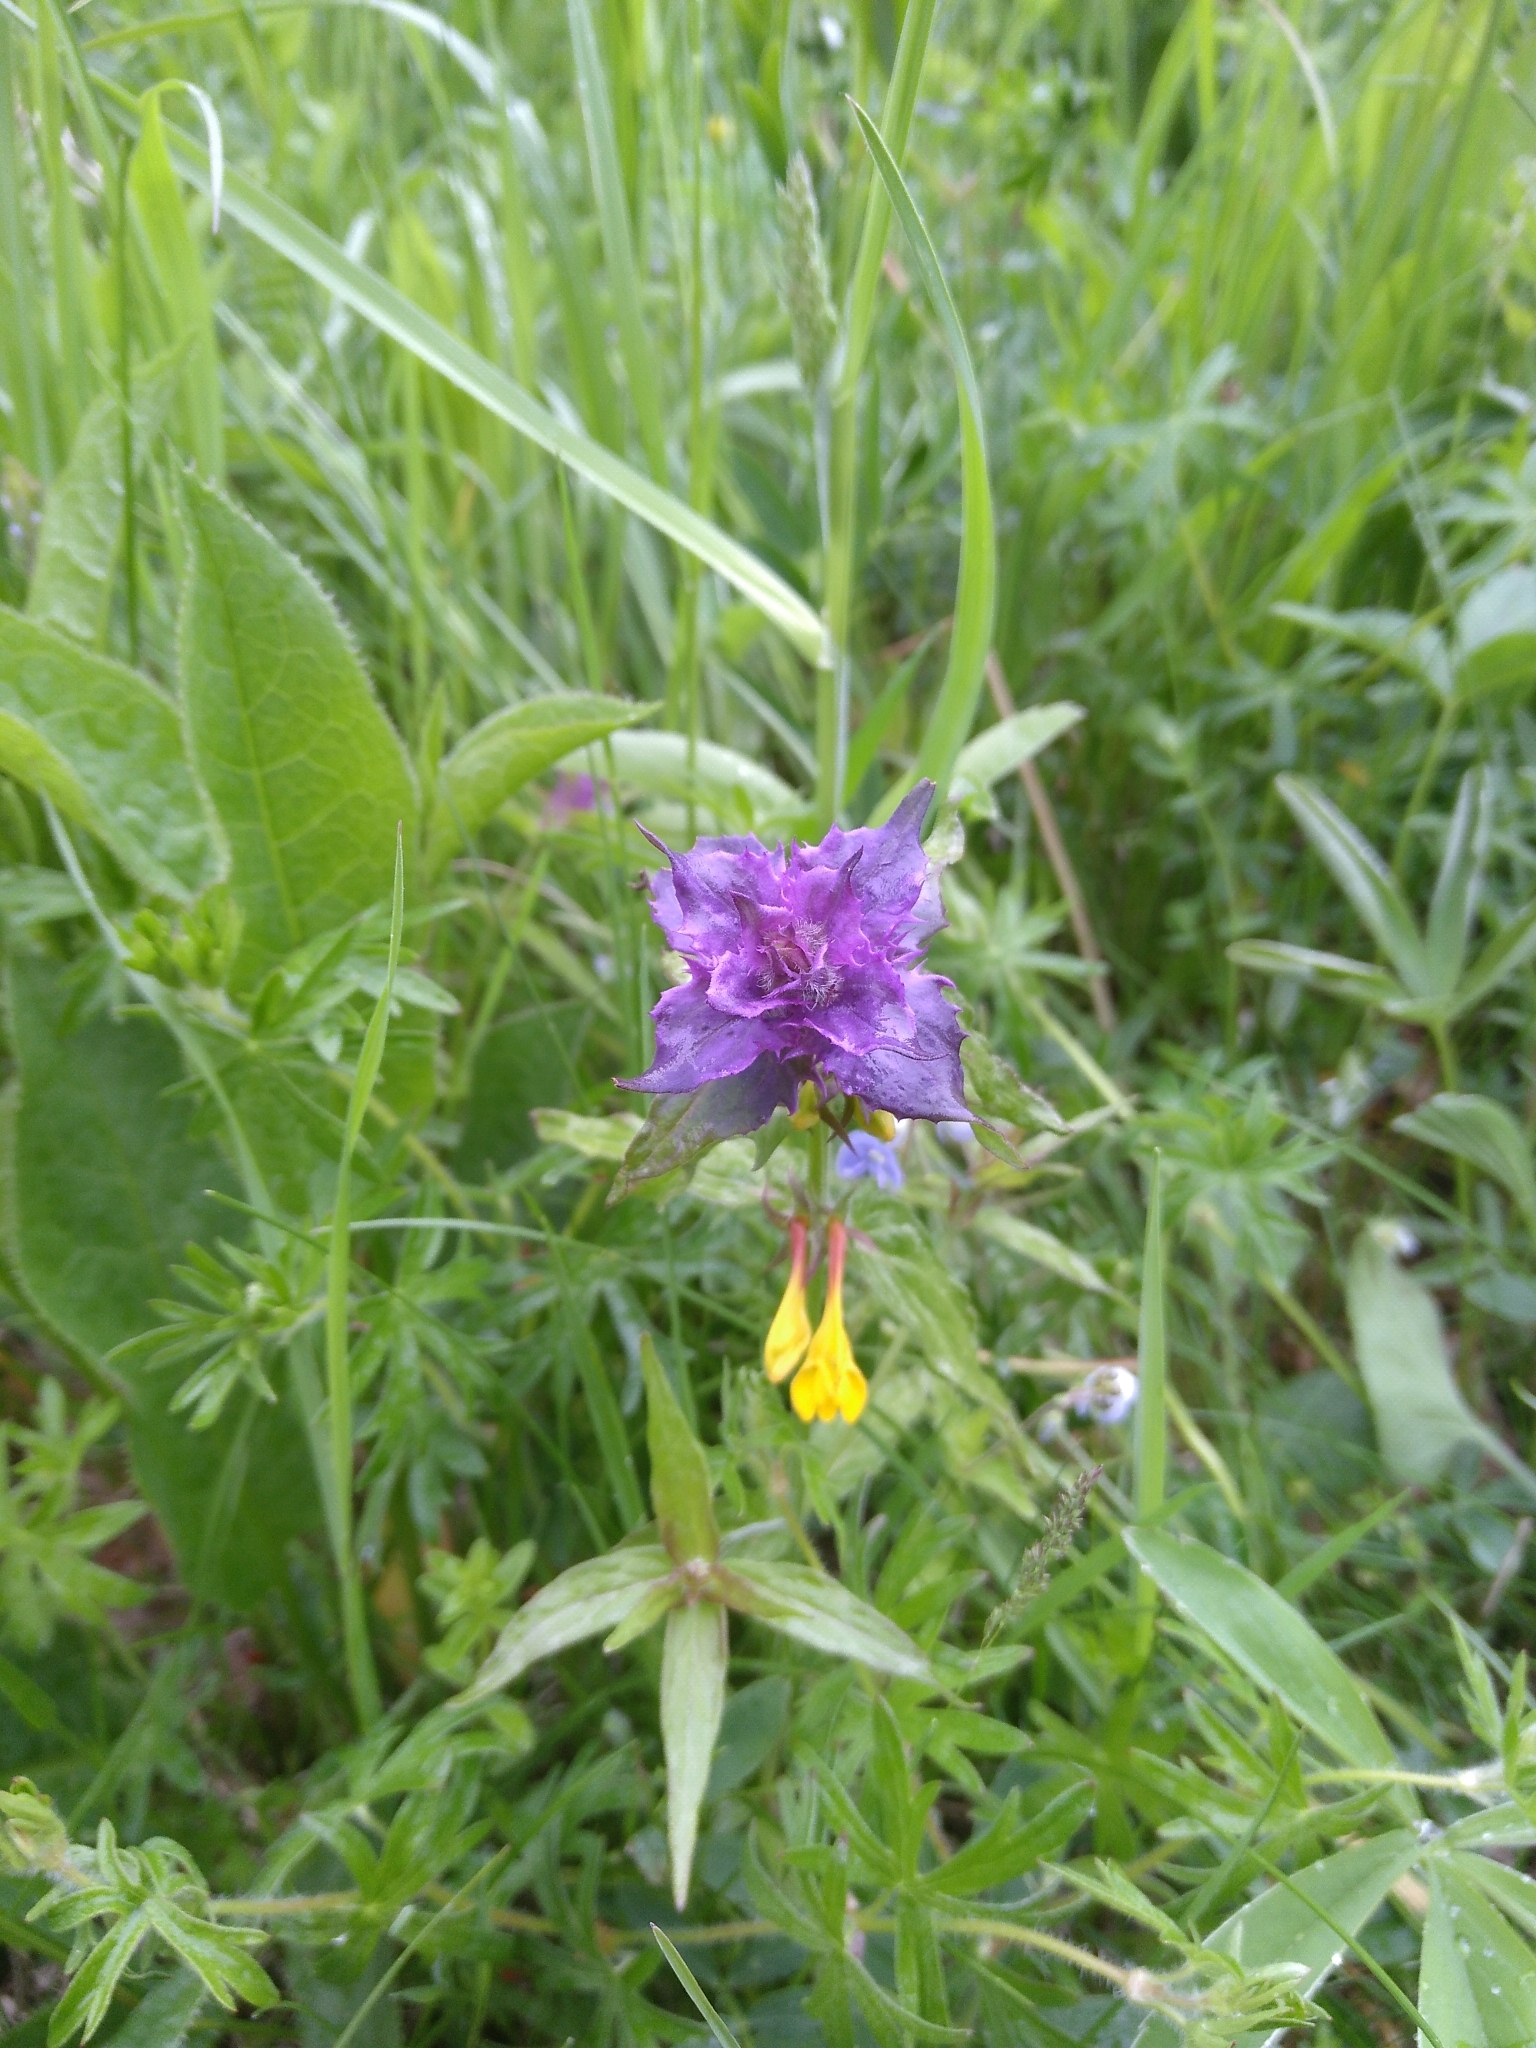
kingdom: Plantae
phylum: Tracheophyta
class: Magnoliopsida
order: Lamiales
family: Orobanchaceae
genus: Melampyrum
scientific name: Melampyrum nemorosum
